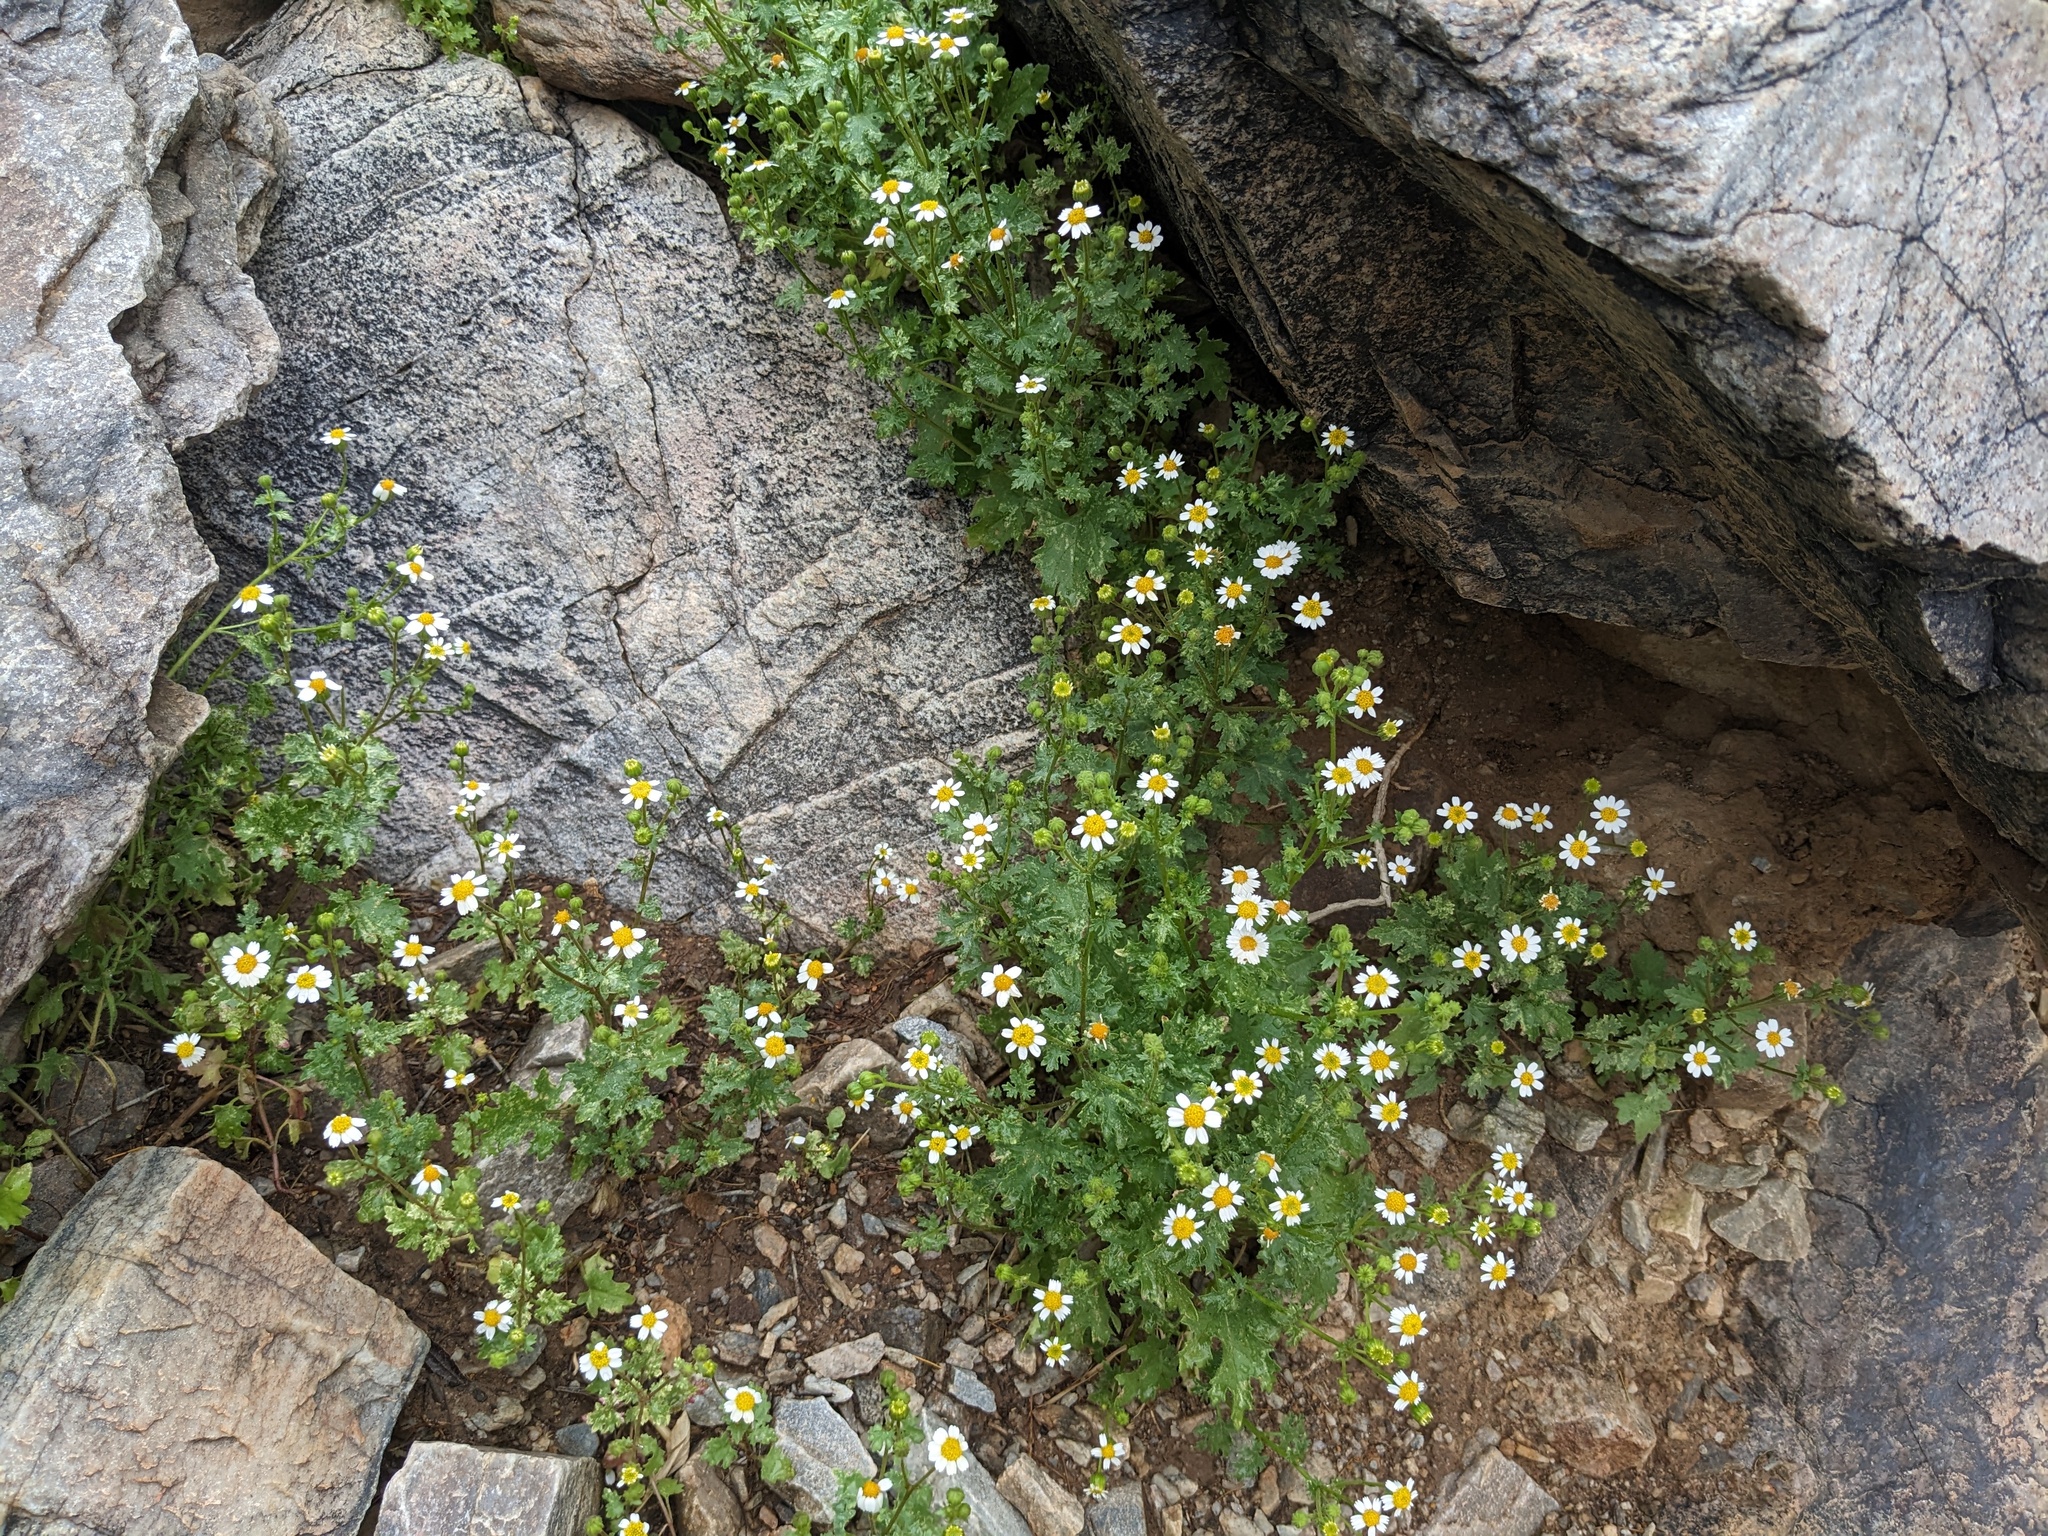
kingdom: Plantae
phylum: Tracheophyta
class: Magnoliopsida
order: Asterales
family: Asteraceae
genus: Laphamia
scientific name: Laphamia emoryi
